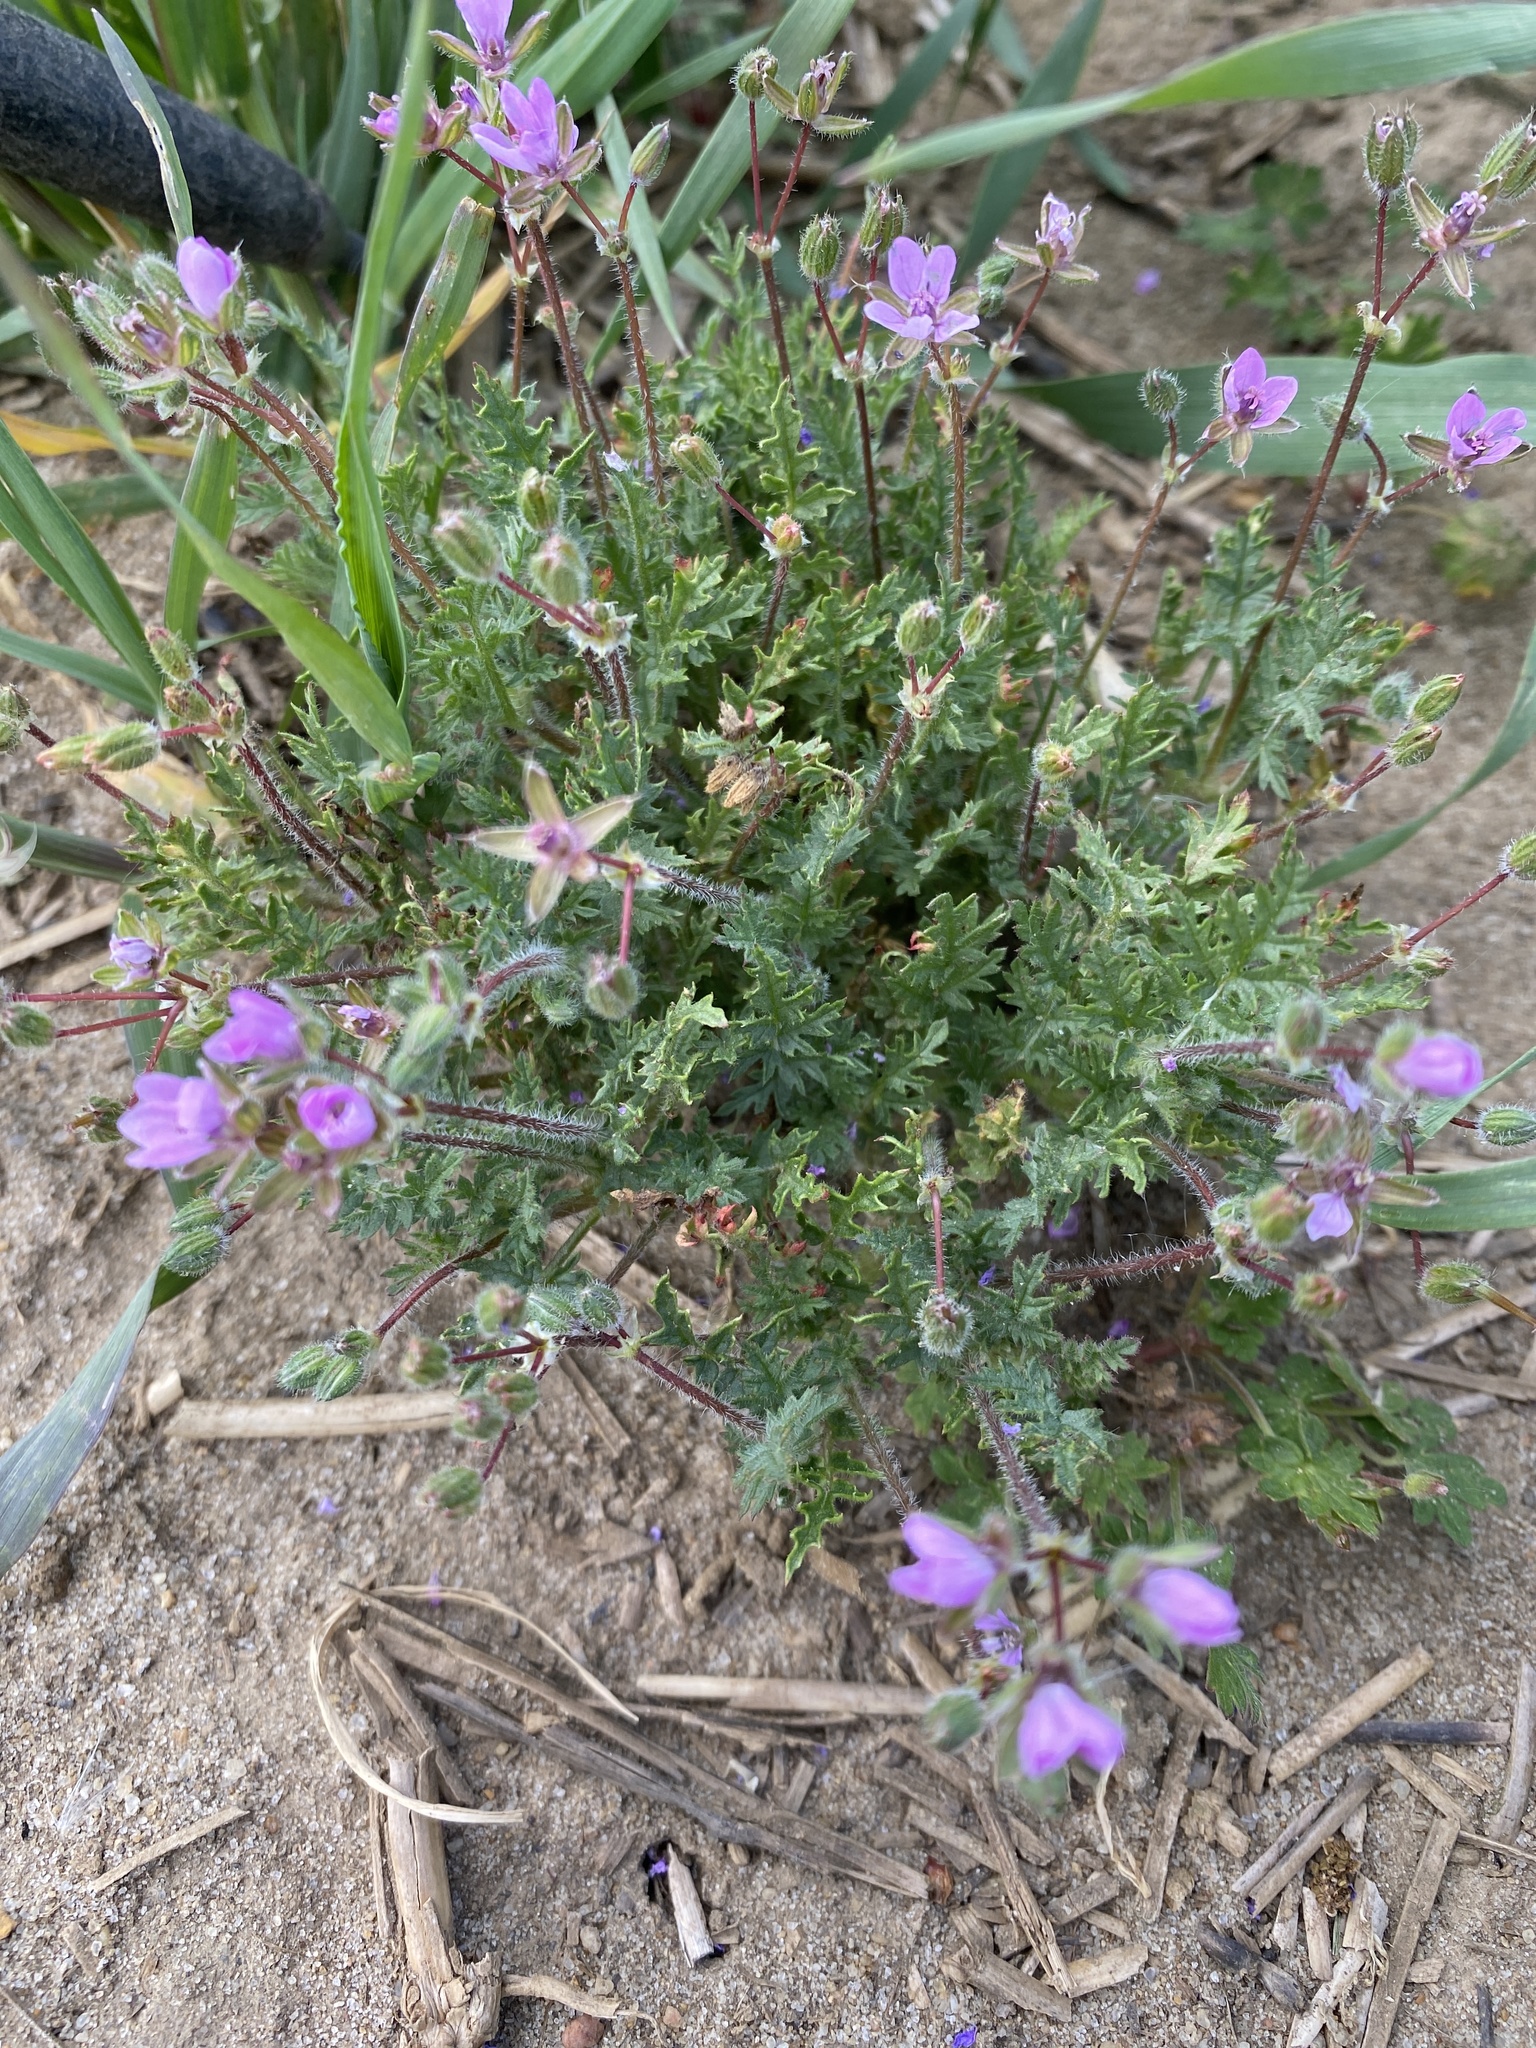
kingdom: Plantae
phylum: Tracheophyta
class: Magnoliopsida
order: Geraniales
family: Geraniaceae
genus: Erodium
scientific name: Erodium cicutarium
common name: Common stork's-bill
